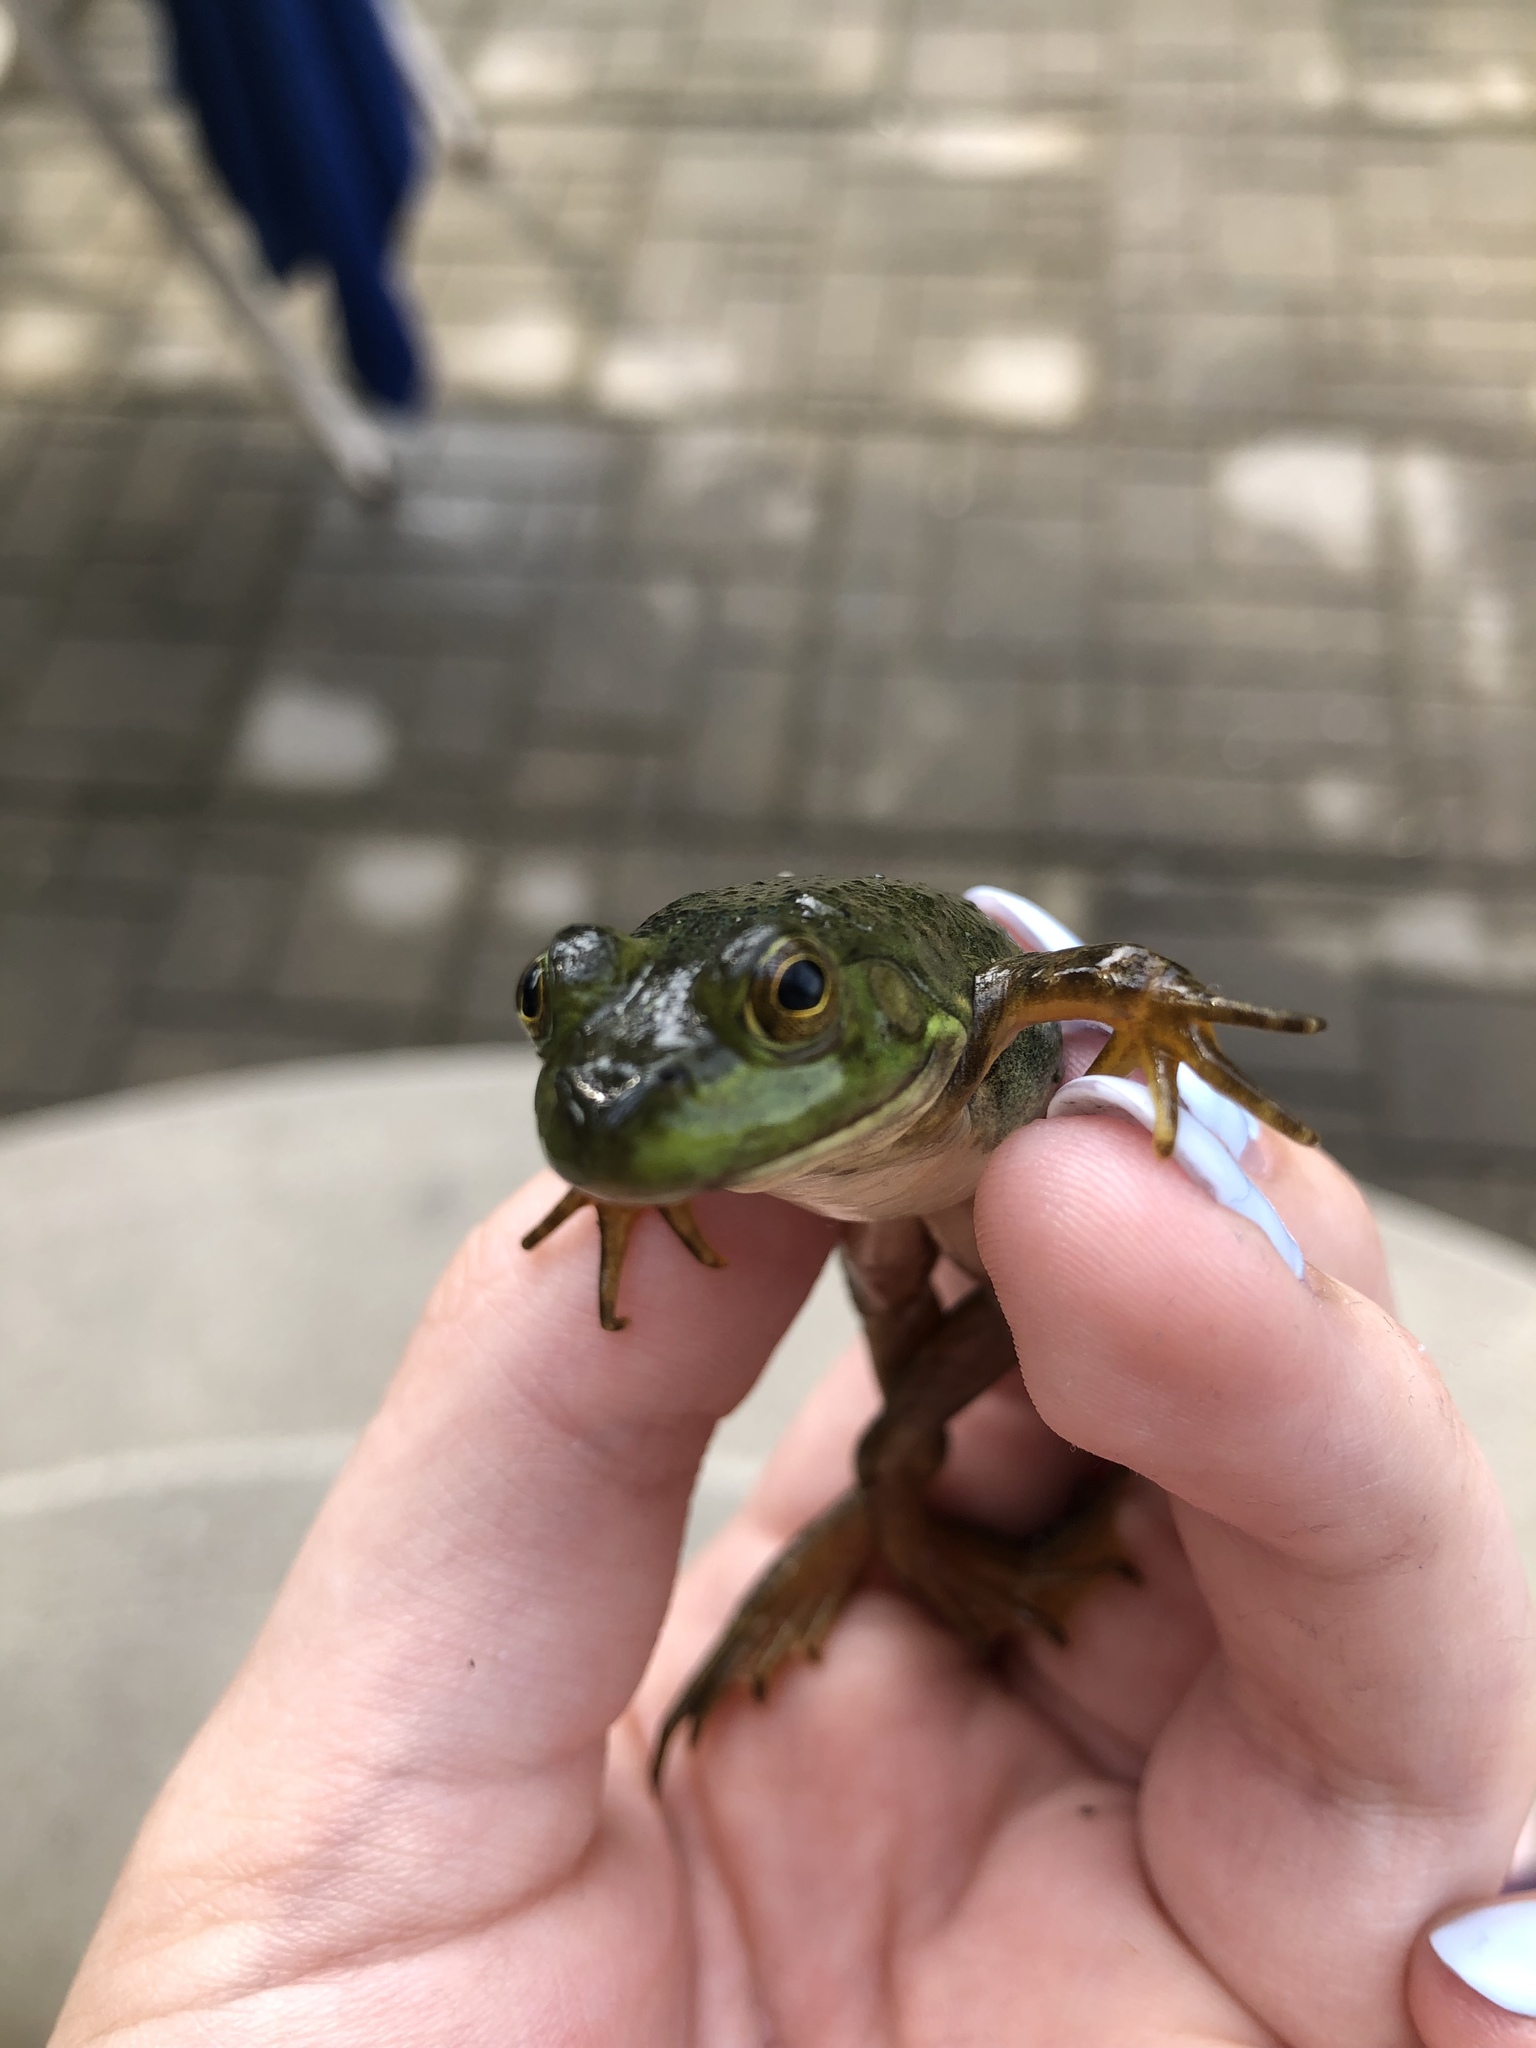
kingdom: Animalia
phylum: Chordata
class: Amphibia
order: Anura
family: Ranidae
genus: Lithobates
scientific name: Lithobates catesbeianus
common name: American bullfrog
